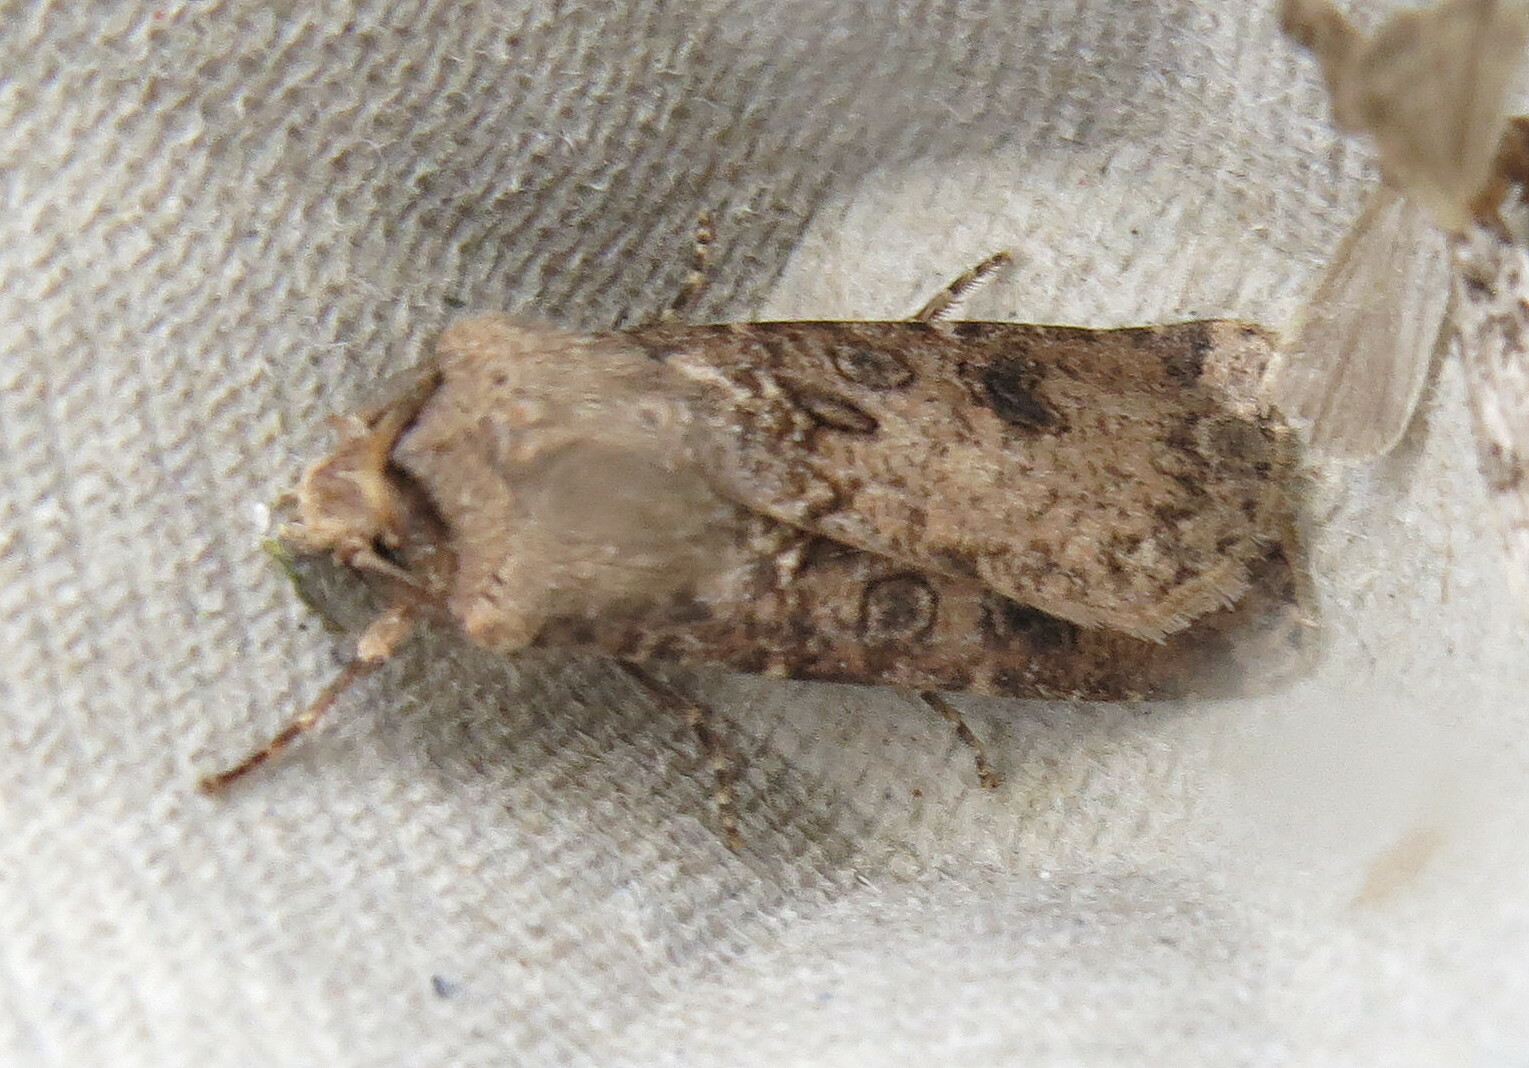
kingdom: Animalia
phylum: Arthropoda
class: Insecta
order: Lepidoptera
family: Noctuidae
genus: Agrotis
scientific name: Agrotis segetum
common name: Turnip moth
